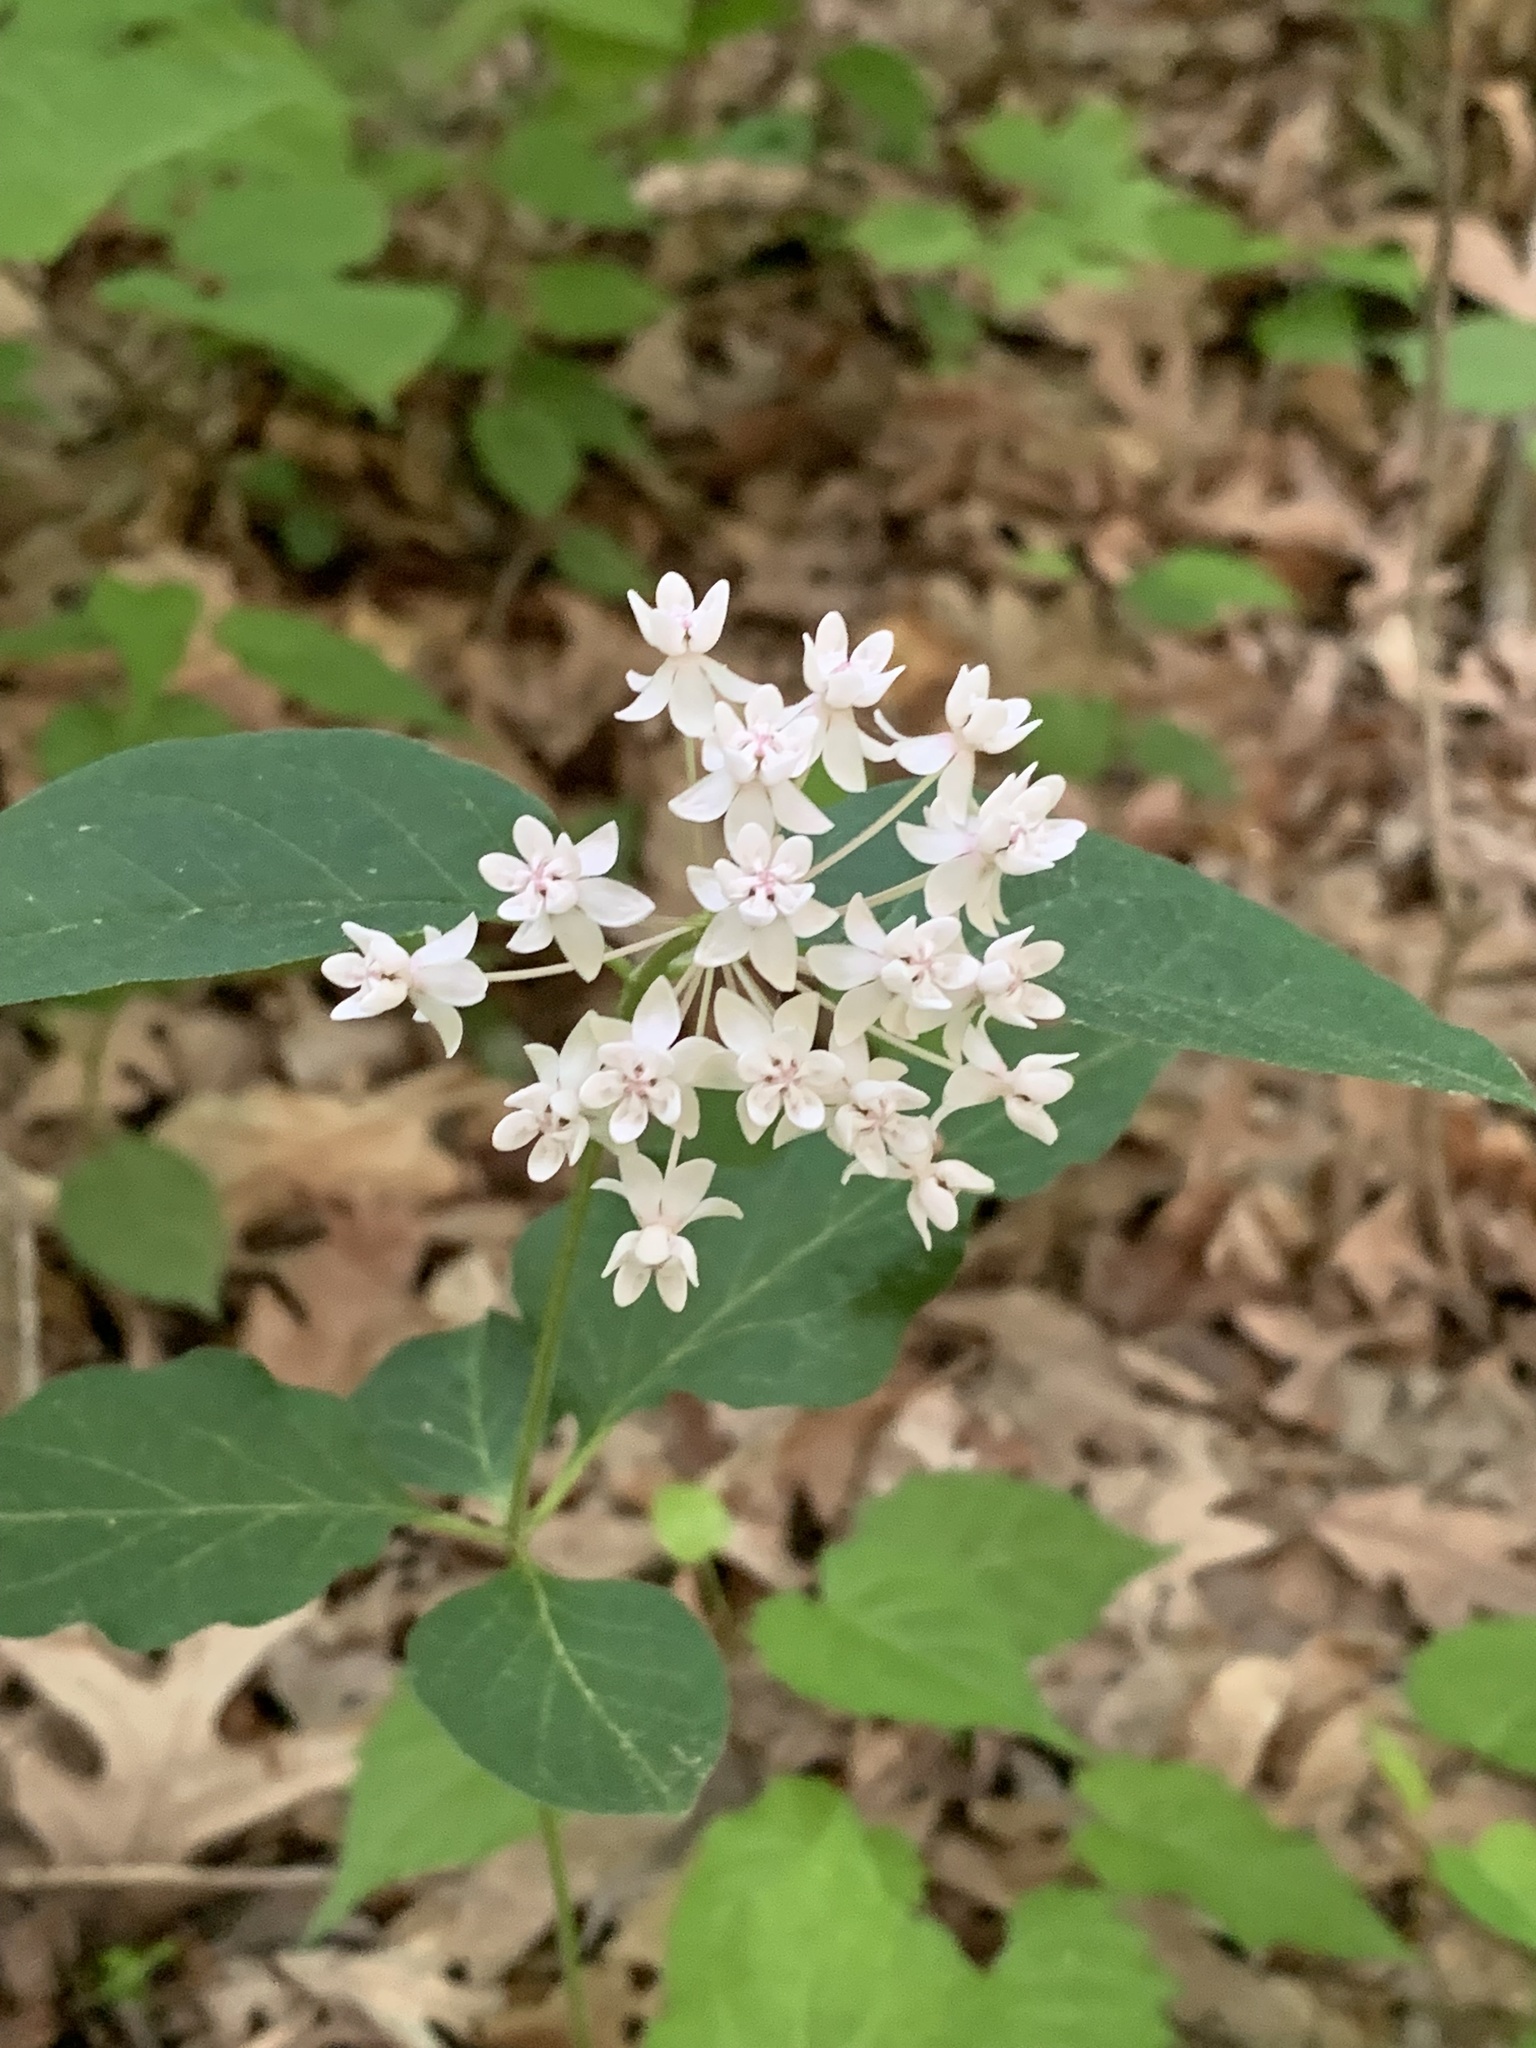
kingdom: Plantae
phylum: Tracheophyta
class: Magnoliopsida
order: Gentianales
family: Apocynaceae
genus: Asclepias
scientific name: Asclepias quadrifolia
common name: Whorled milkweed
